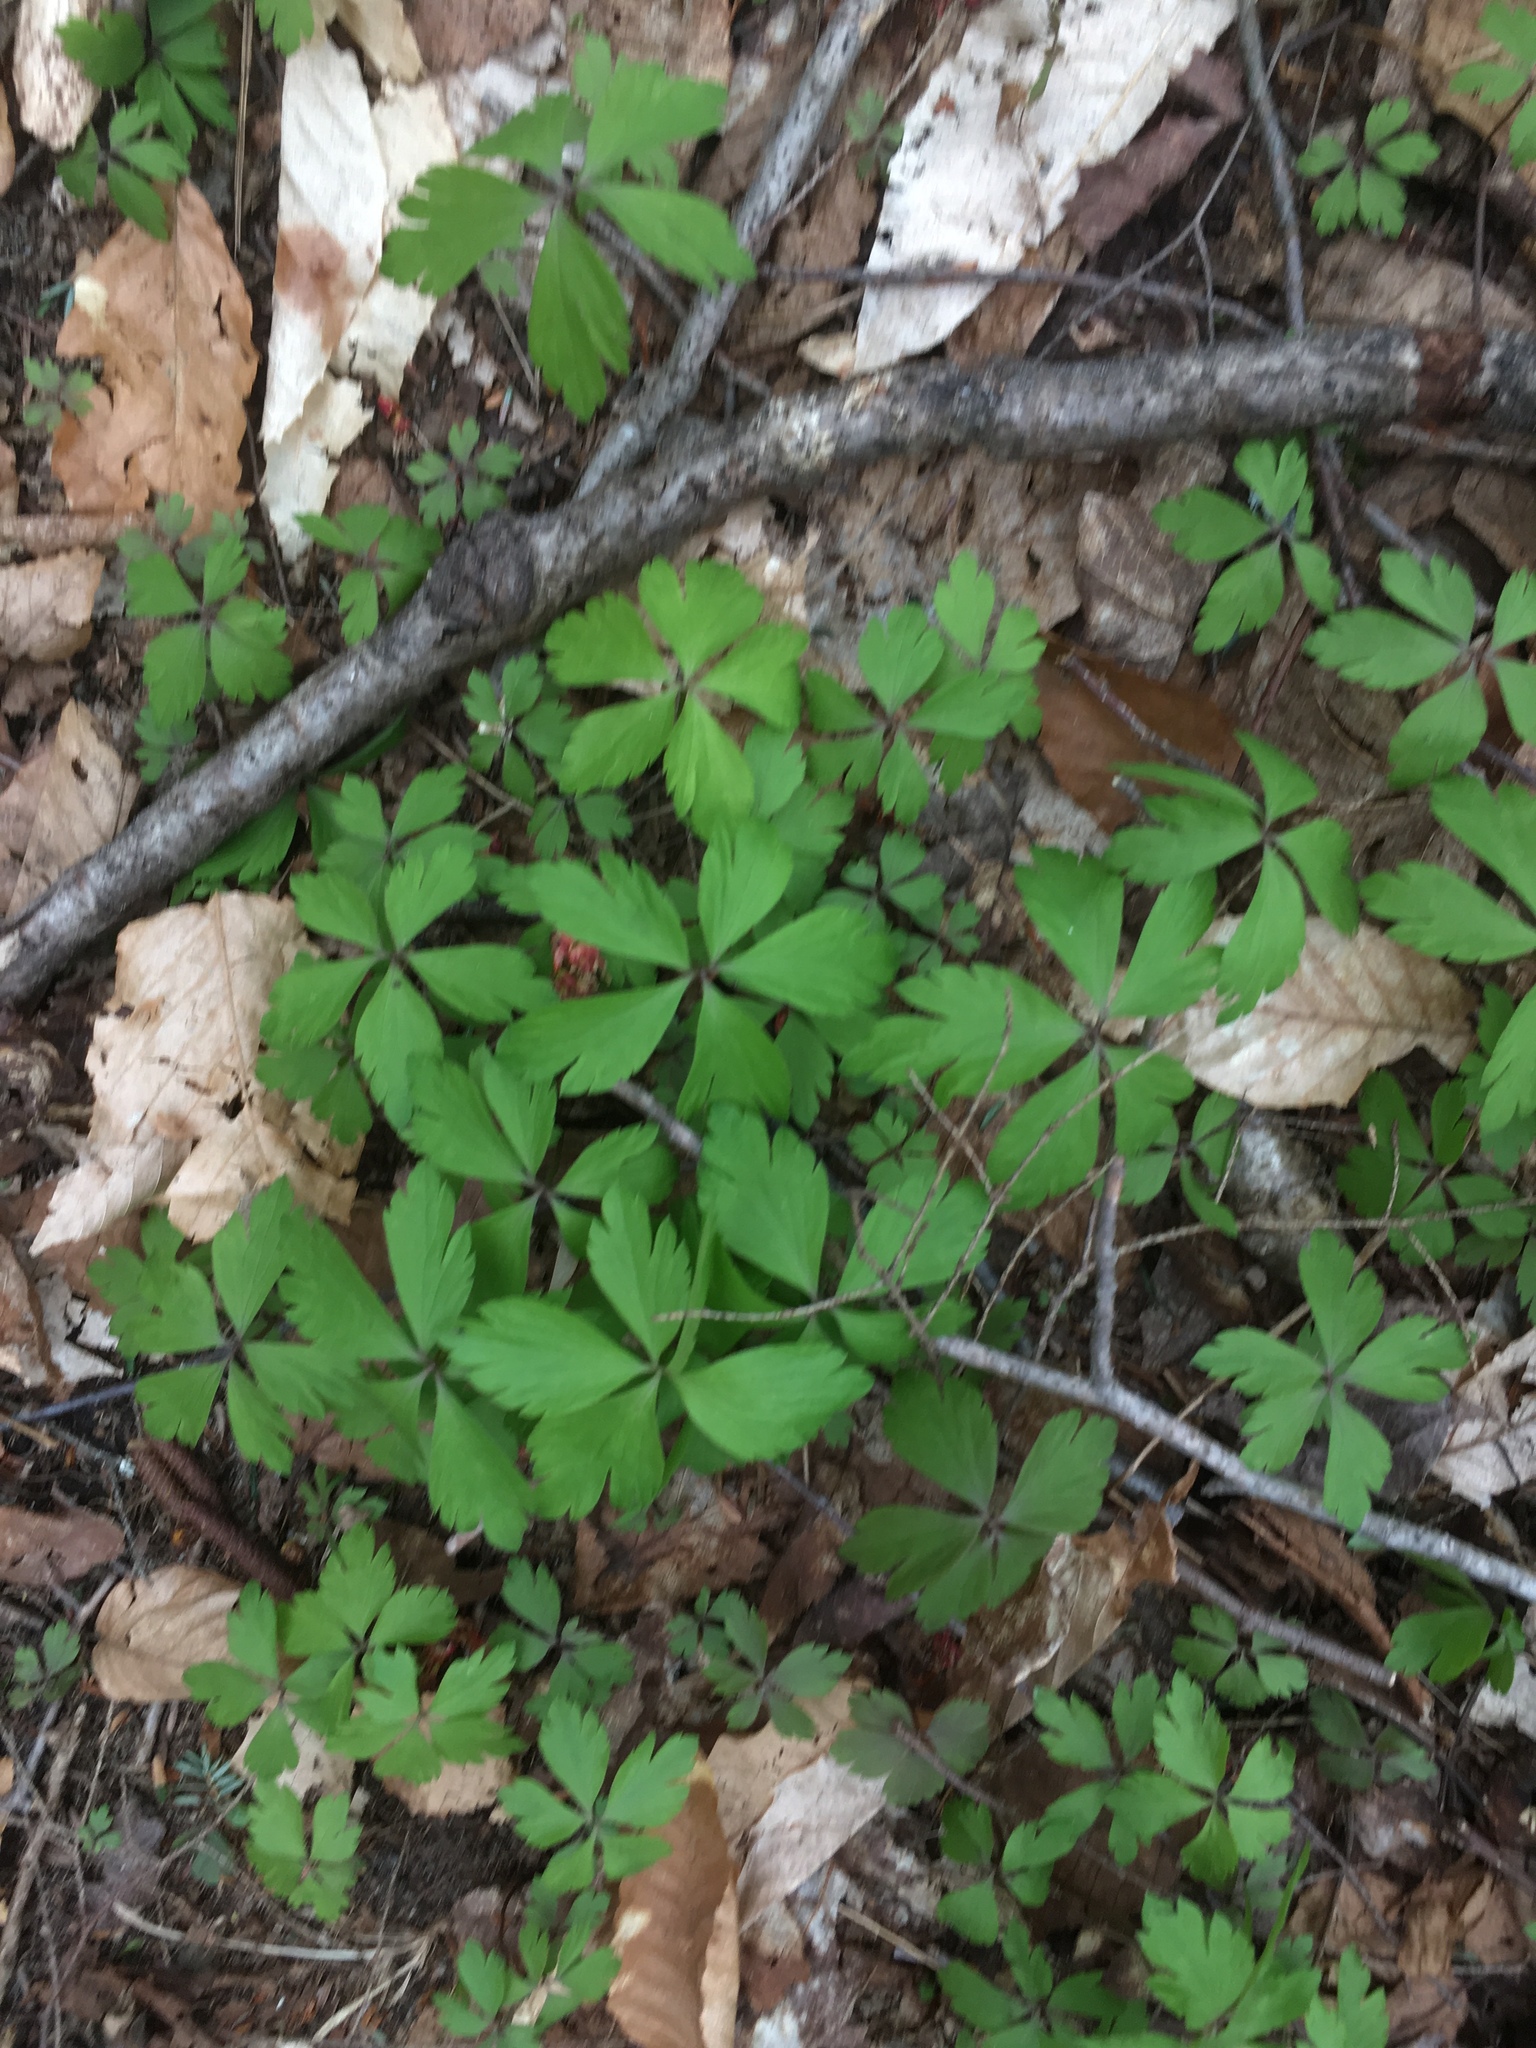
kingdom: Plantae
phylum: Tracheophyta
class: Magnoliopsida
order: Ranunculales
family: Ranunculaceae
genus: Anemone
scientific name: Anemone quinquefolia
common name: Wood anemone
